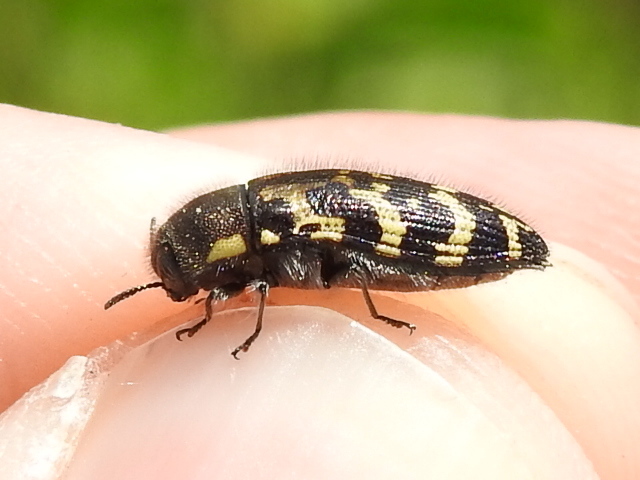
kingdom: Animalia
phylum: Arthropoda
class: Insecta
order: Coleoptera
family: Buprestidae
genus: Acmaeodera
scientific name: Acmaeodera mixta
